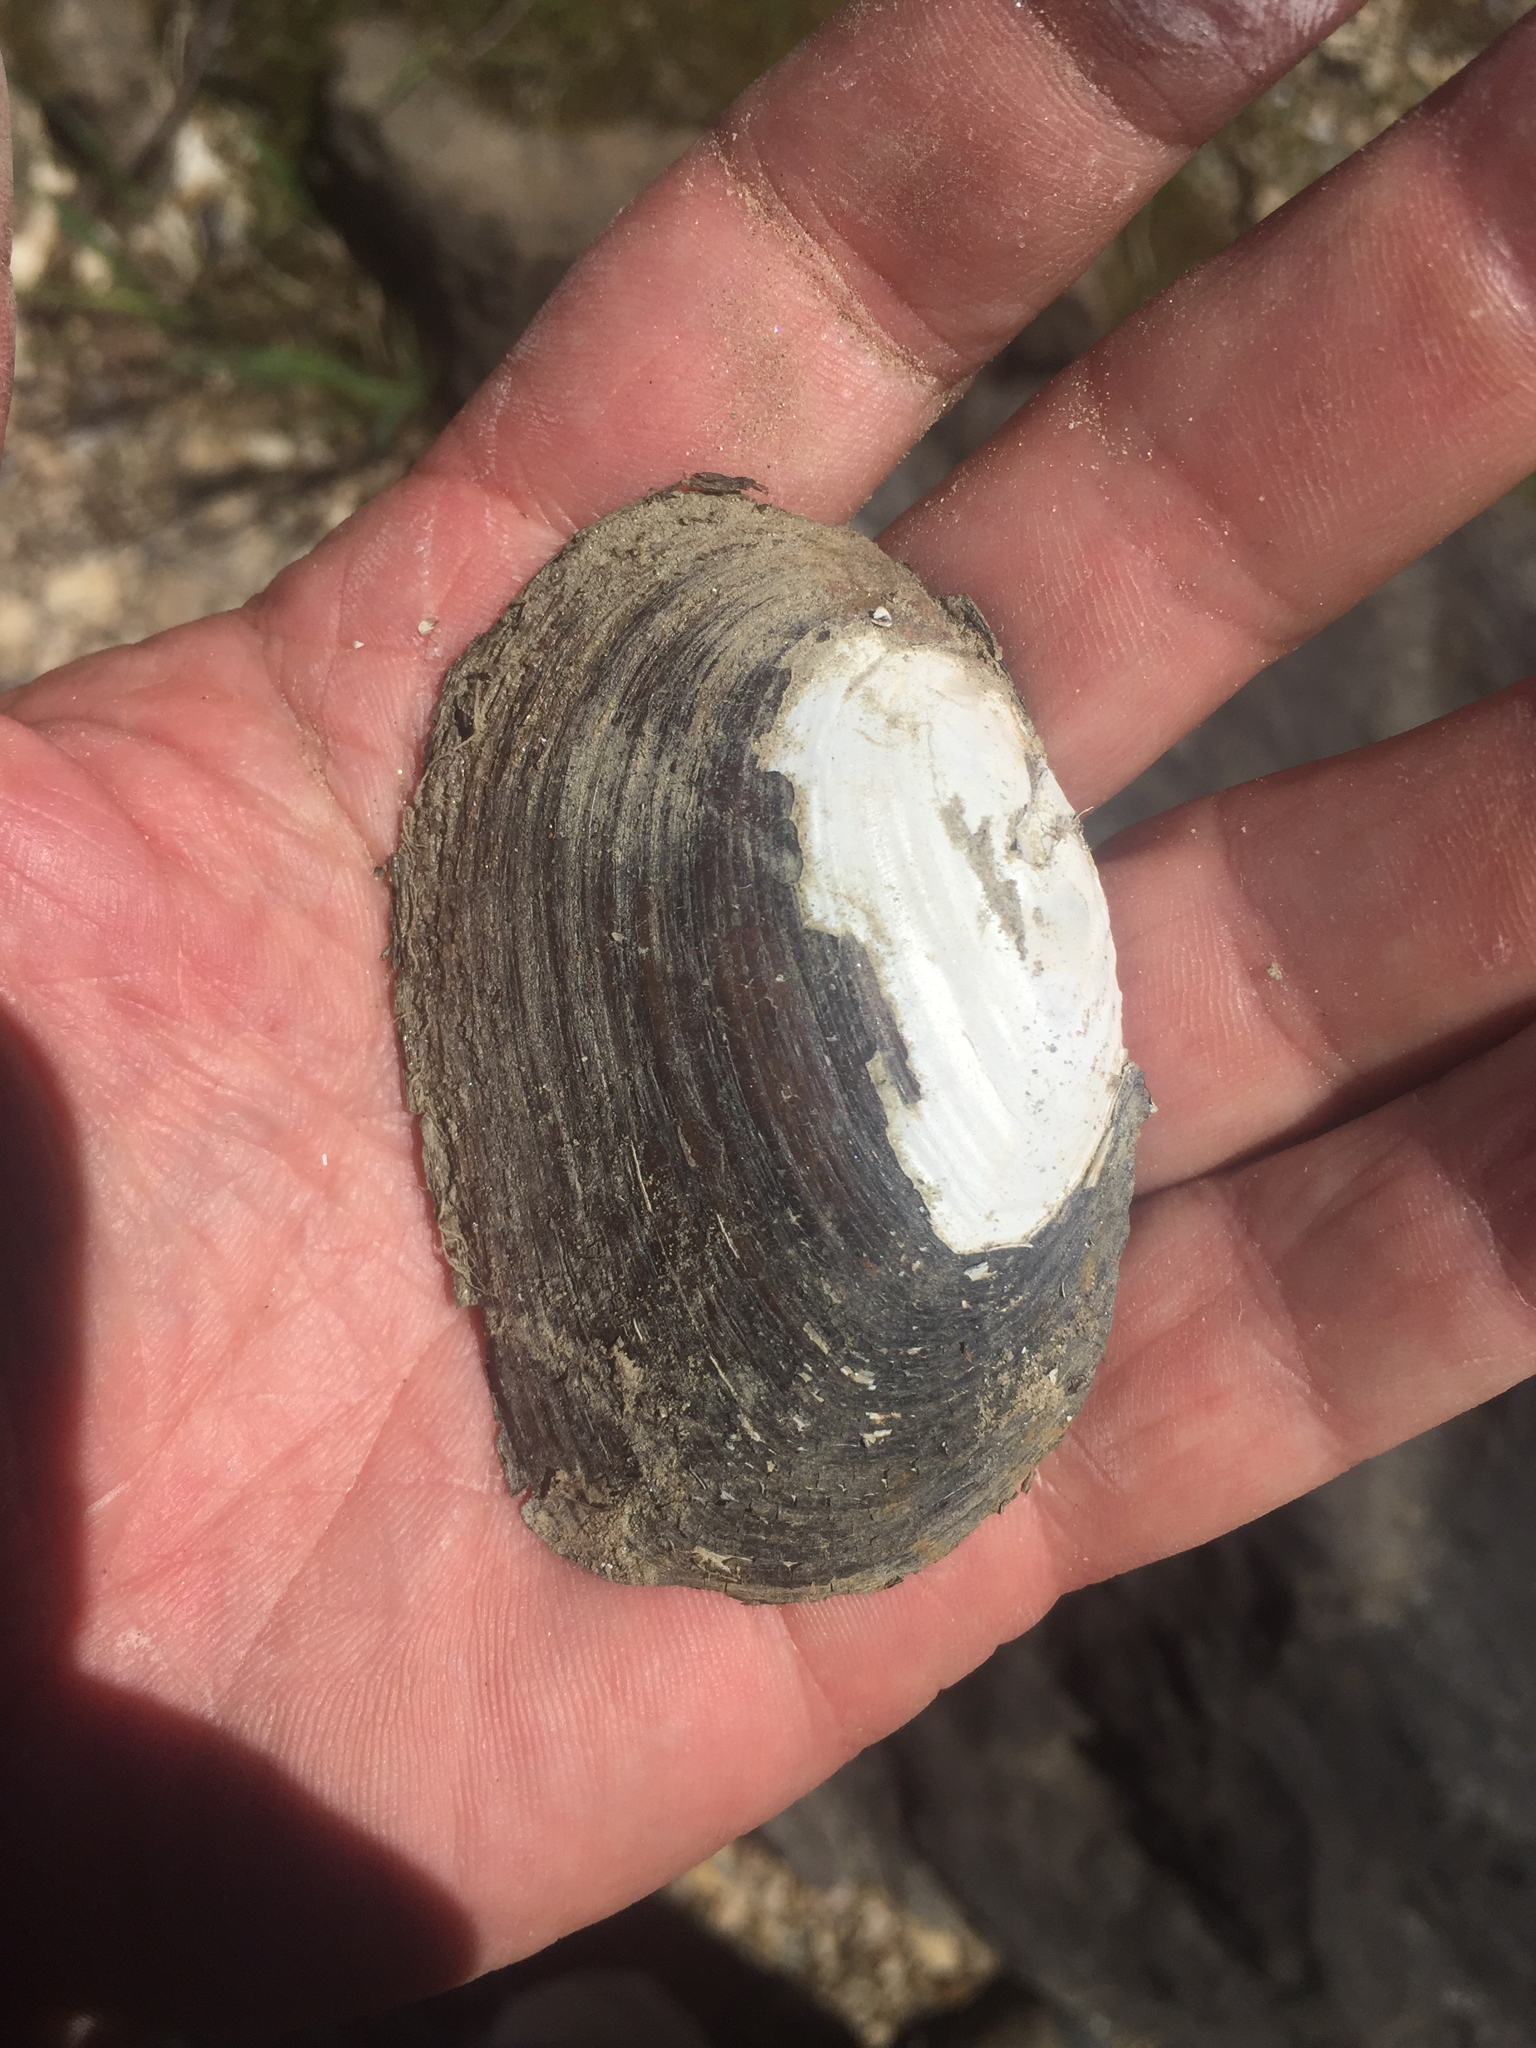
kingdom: Animalia
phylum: Mollusca
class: Bivalvia
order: Unionida
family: Unionidae
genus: Elliptio
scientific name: Elliptio complanata
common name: Eastern elliptio
